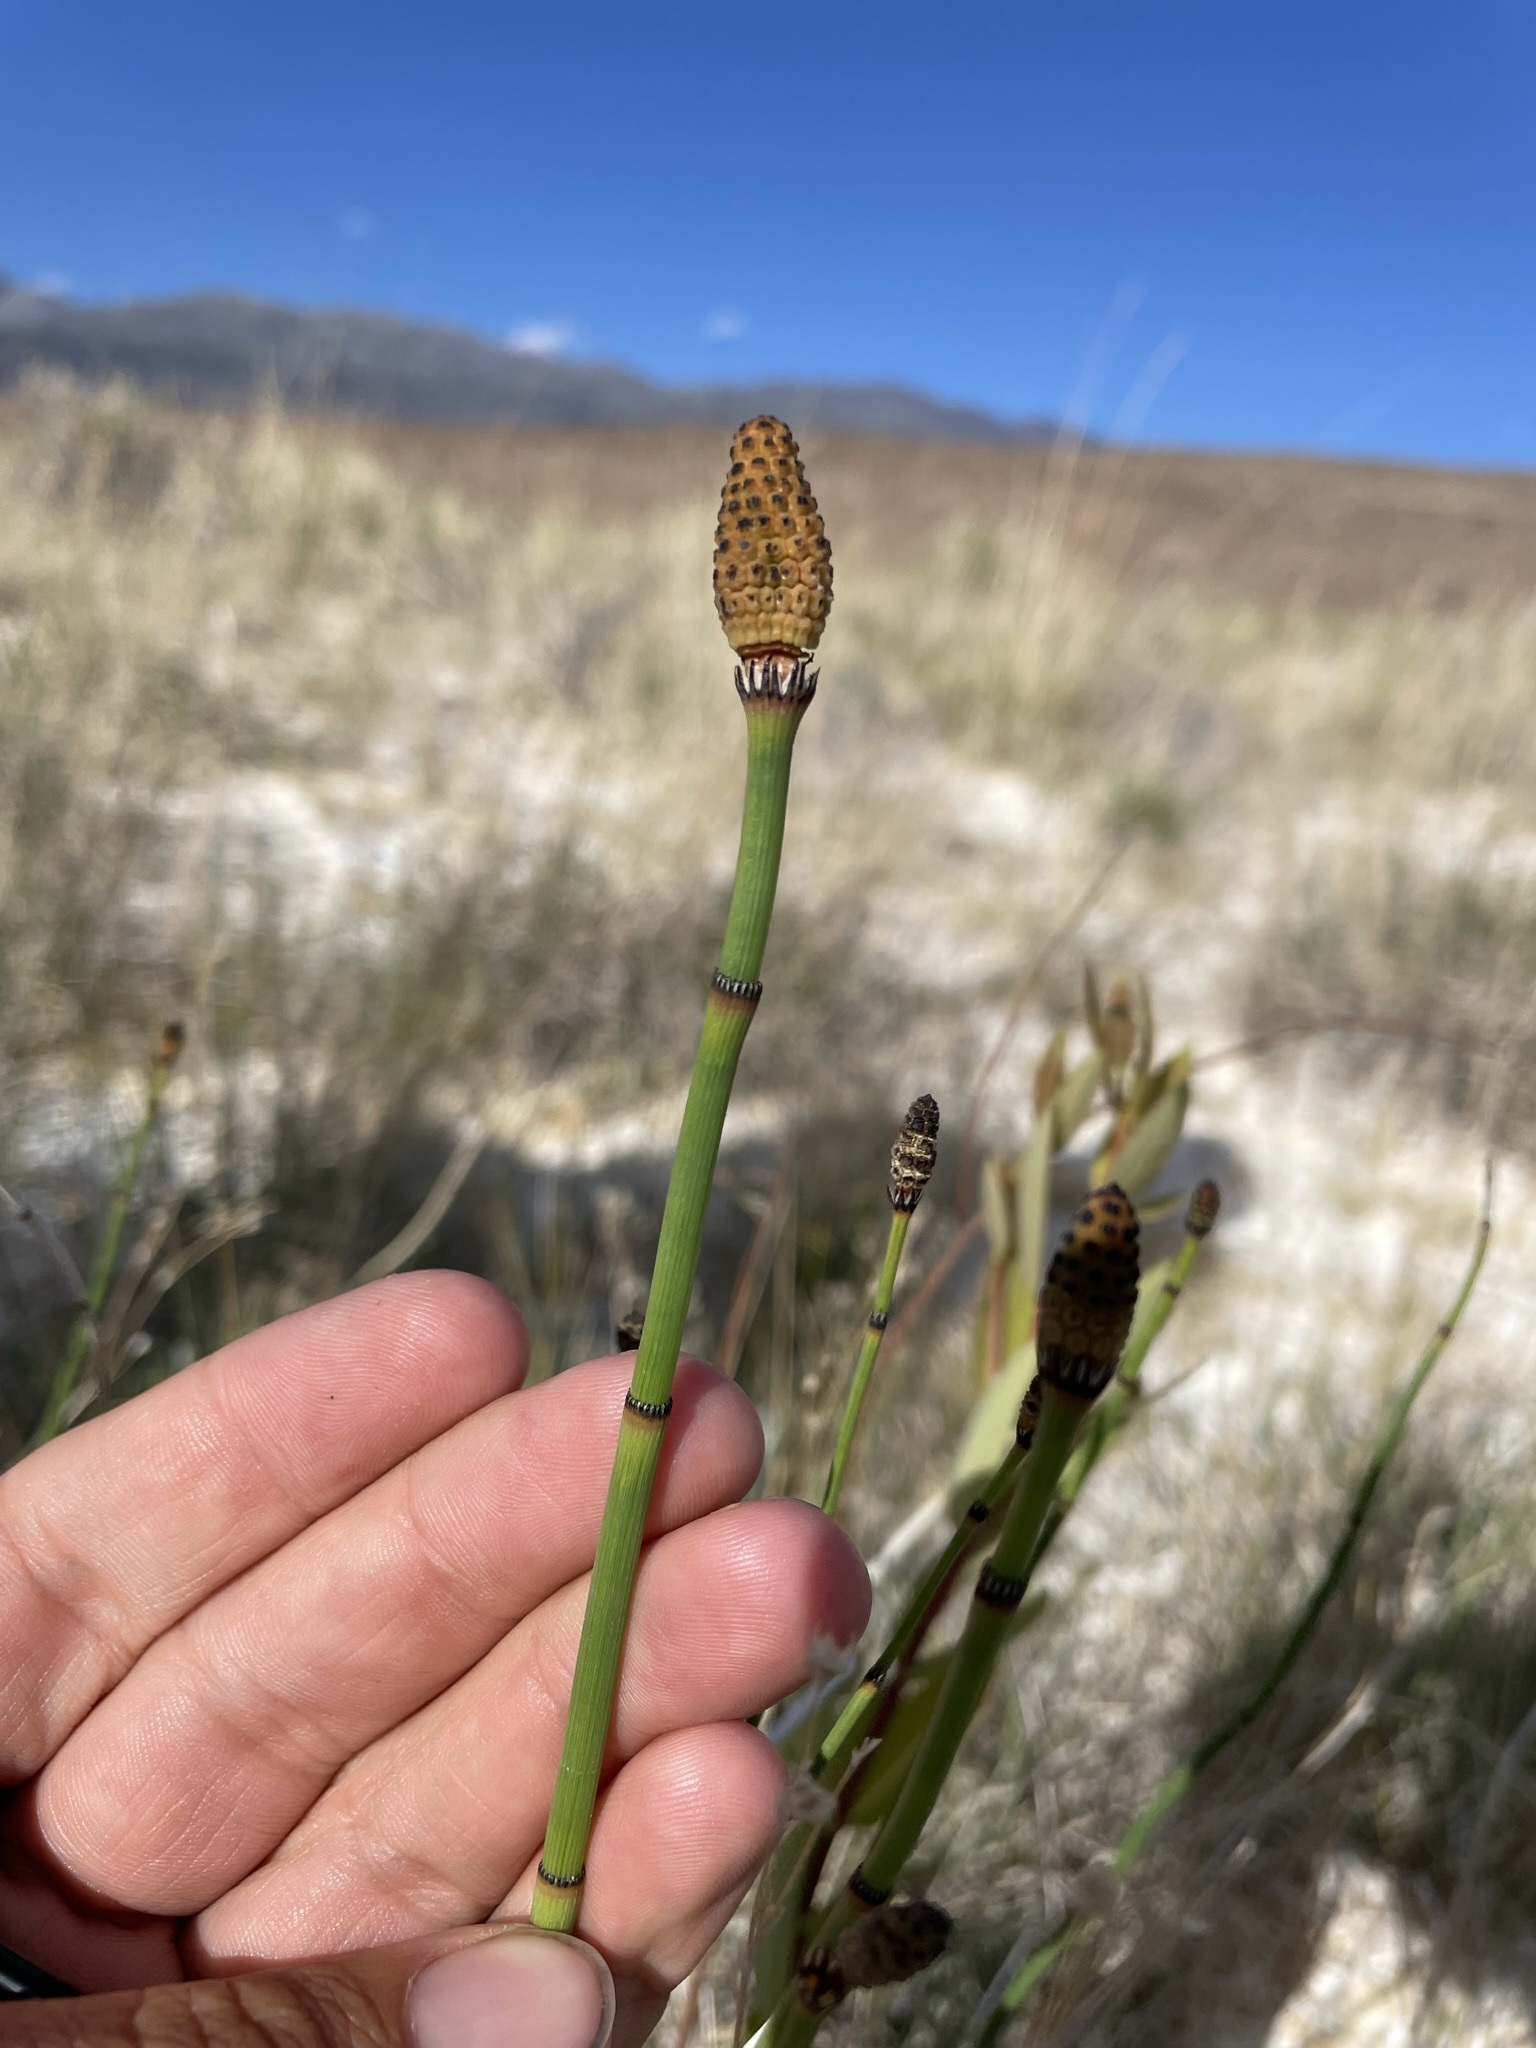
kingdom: Plantae
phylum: Tracheophyta
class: Polypodiopsida
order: Equisetales
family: Equisetaceae
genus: Equisetum
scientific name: Equisetum laevigatum
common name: Smooth scouring-rush
